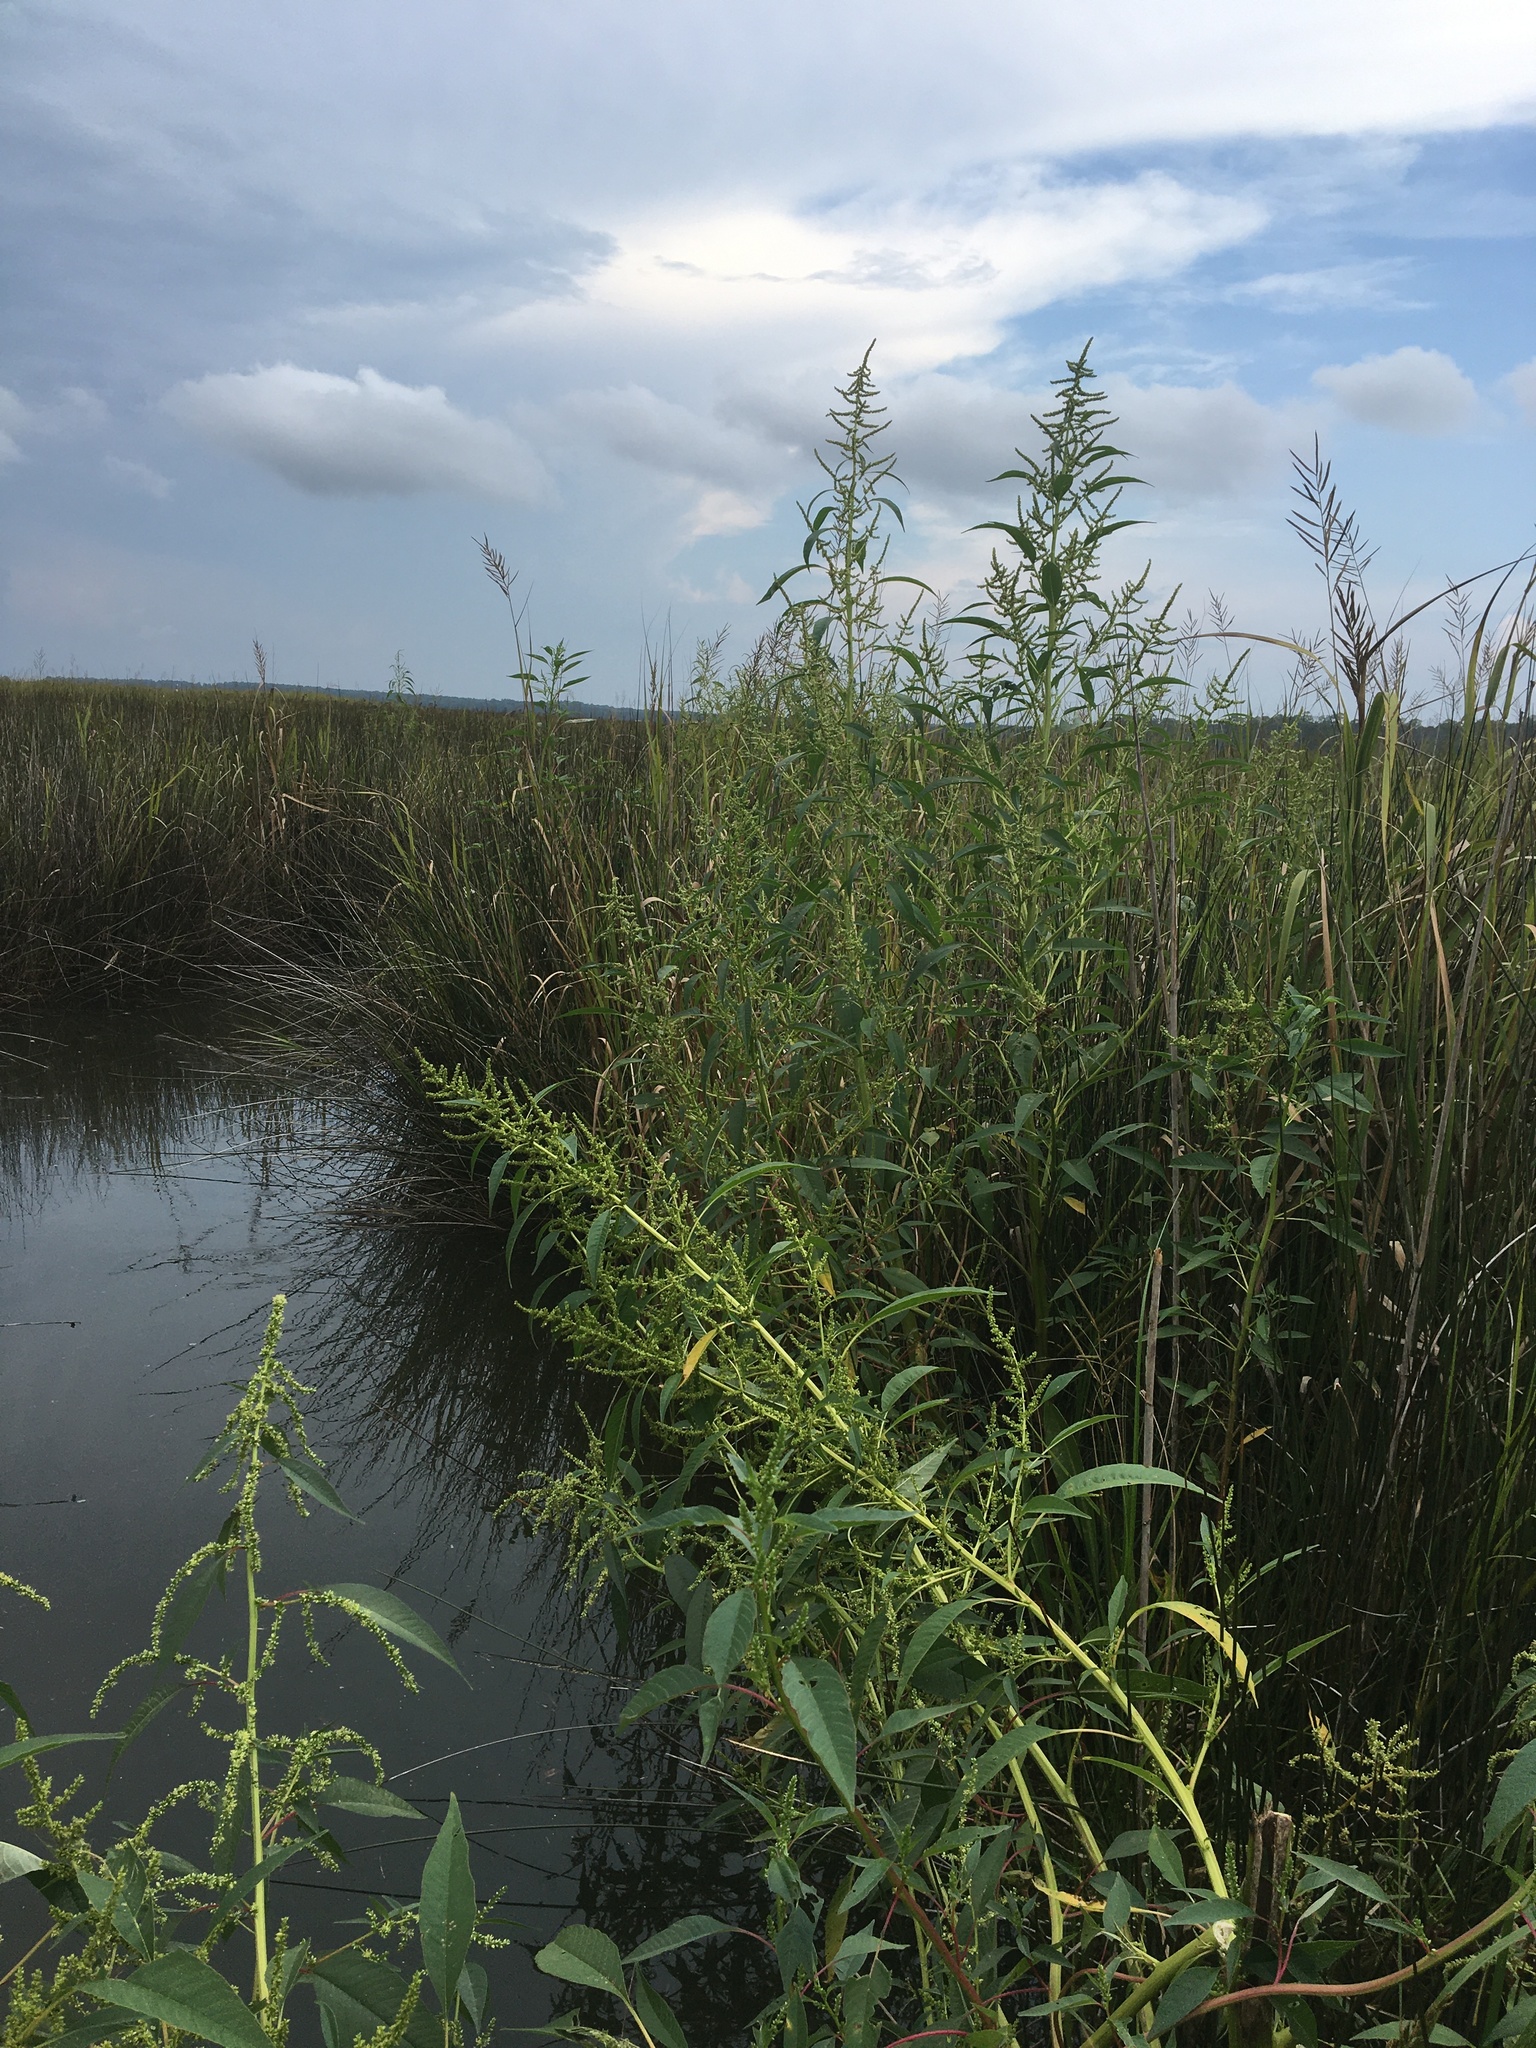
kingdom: Plantae
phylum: Tracheophyta
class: Magnoliopsida
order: Caryophyllales
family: Amaranthaceae
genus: Amaranthus
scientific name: Amaranthus australis
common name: Southern amaranth
